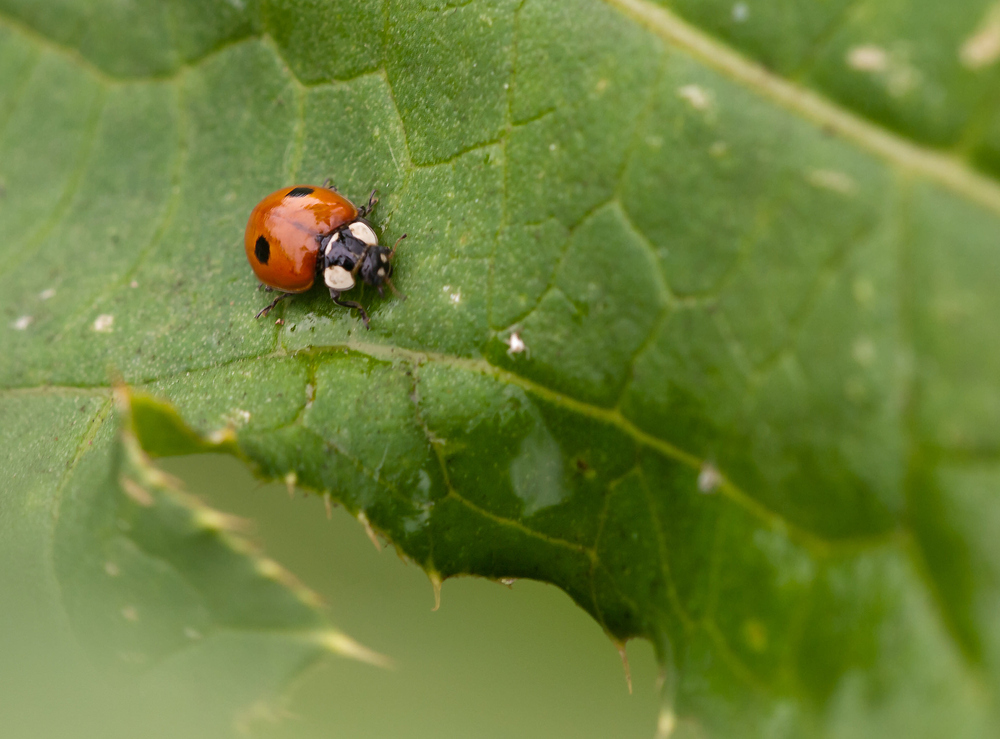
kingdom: Animalia
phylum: Arthropoda
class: Insecta
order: Coleoptera
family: Coccinellidae
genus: Adalia
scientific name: Adalia bipunctata
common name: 2-spot ladybird
